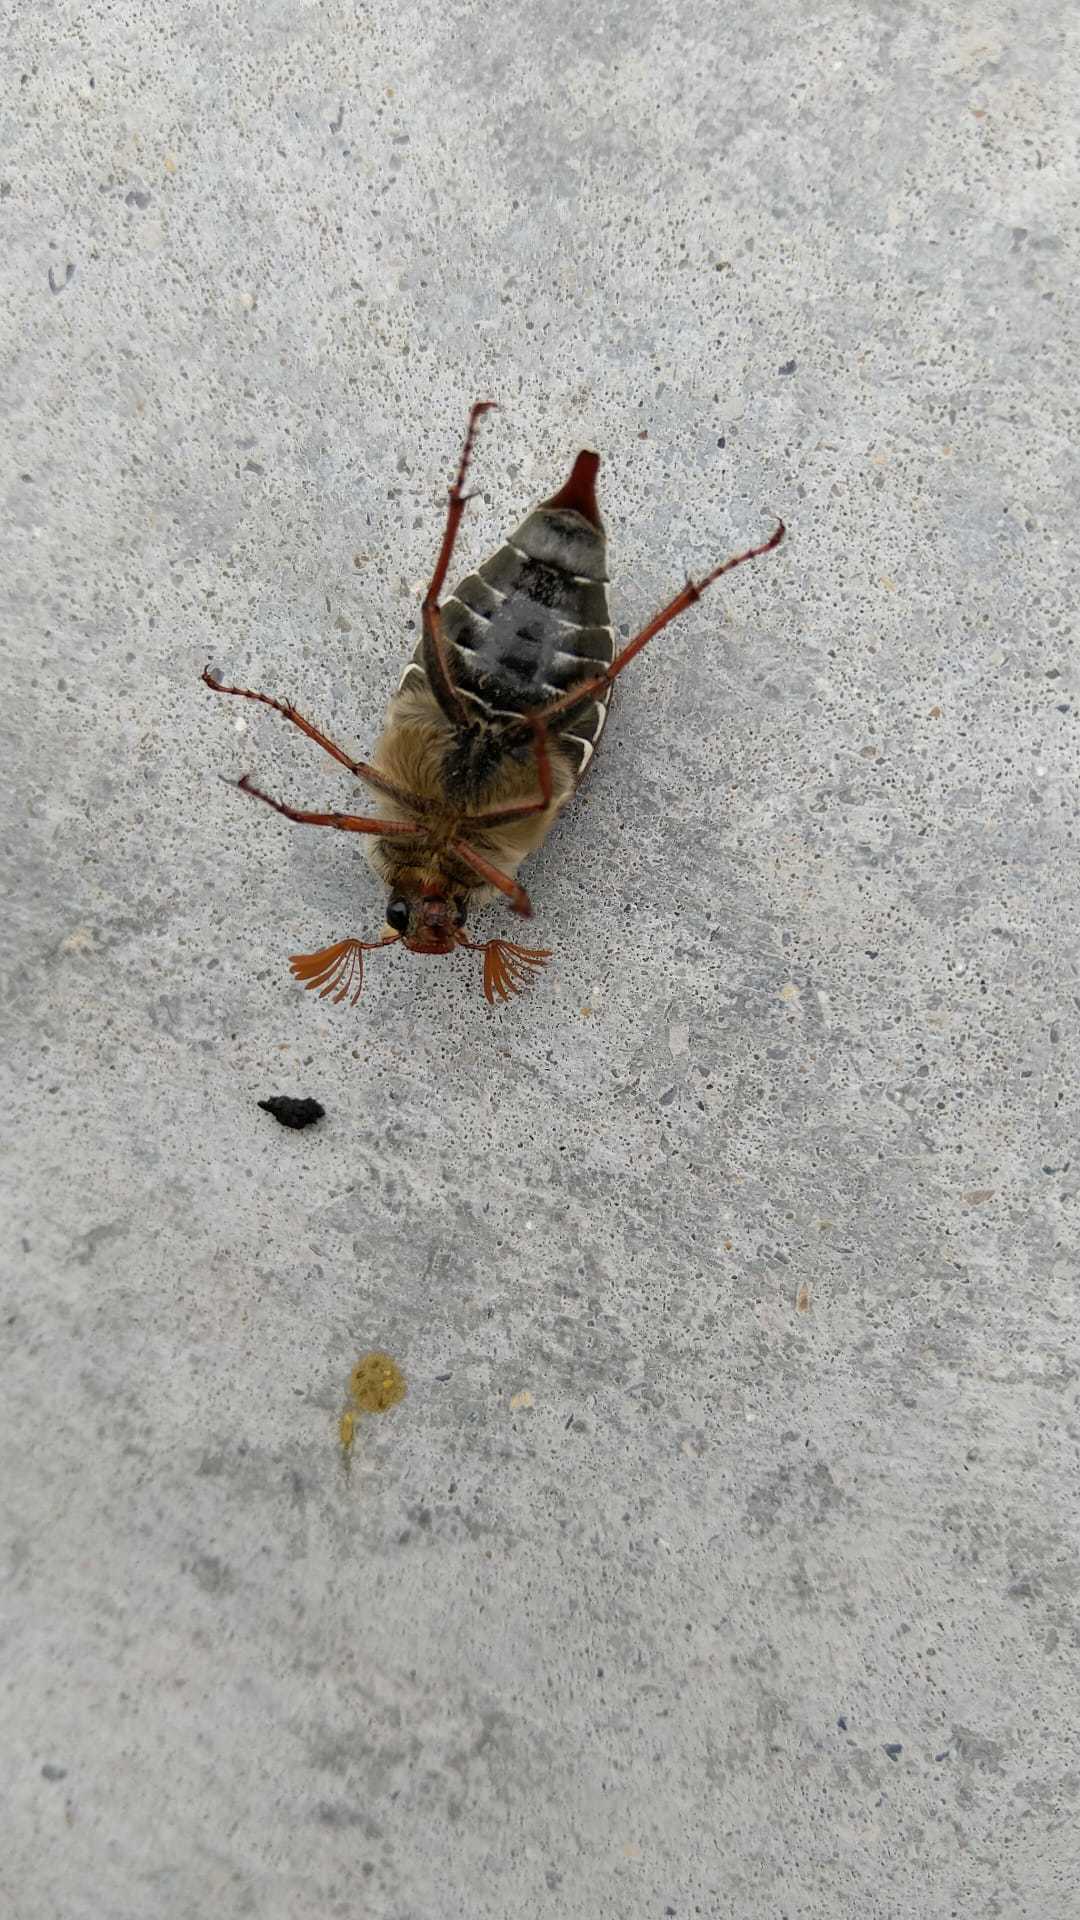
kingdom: Animalia
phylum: Arthropoda
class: Insecta
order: Coleoptera
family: Scarabaeidae
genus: Melolontha
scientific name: Melolontha melolontha
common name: Cockchafer maybeetle
